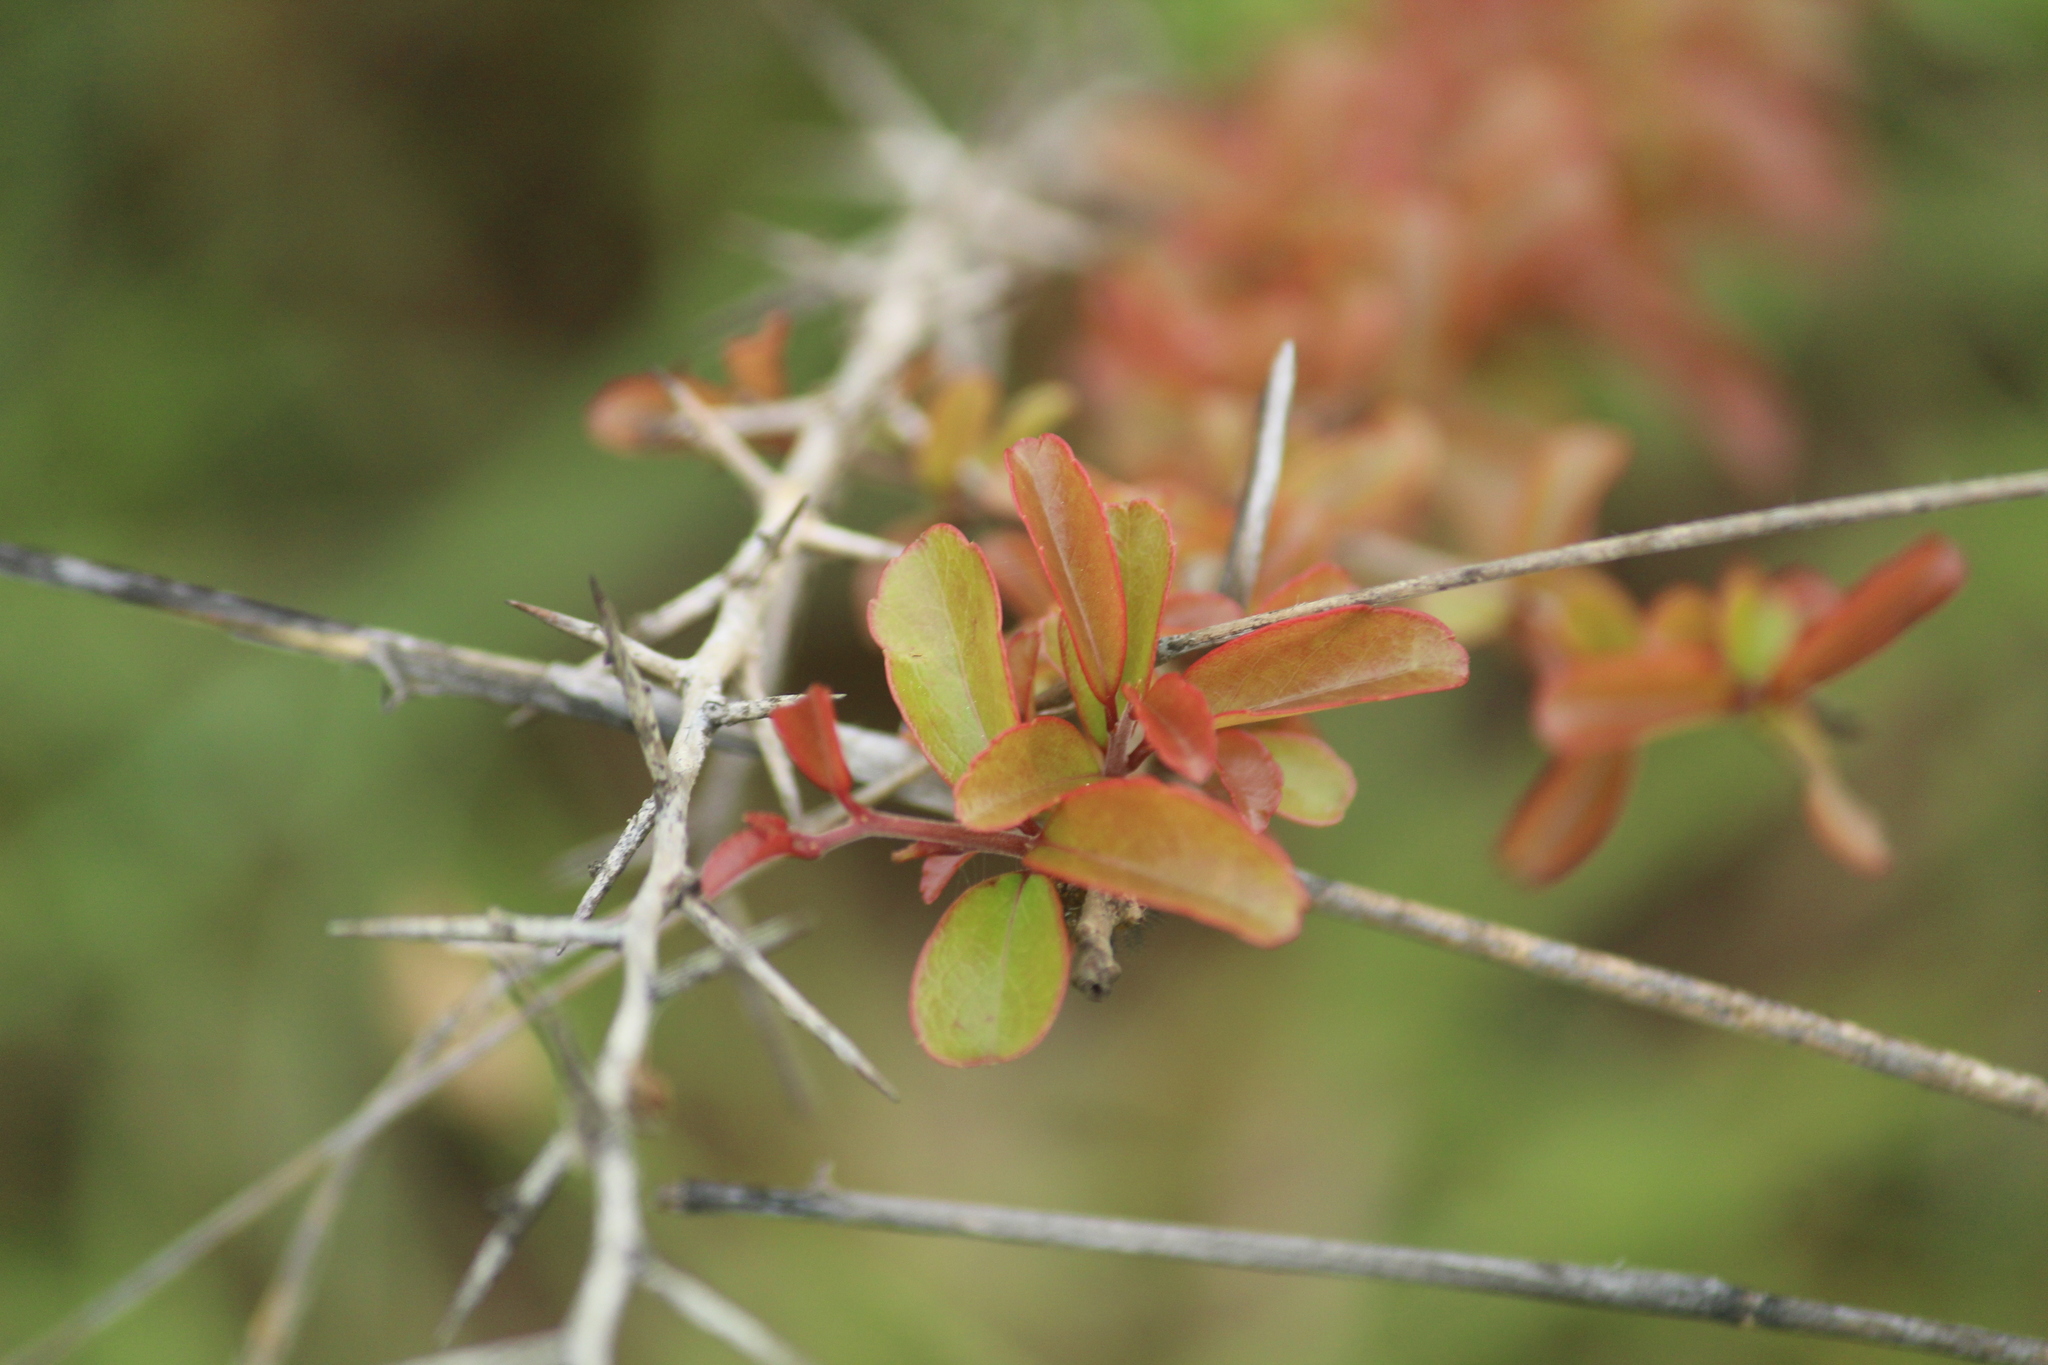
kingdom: Plantae
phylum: Tracheophyta
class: Magnoliopsida
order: Malpighiales
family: Salicaceae
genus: Flacourtia
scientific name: Flacourtia indica
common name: Governor's plum
